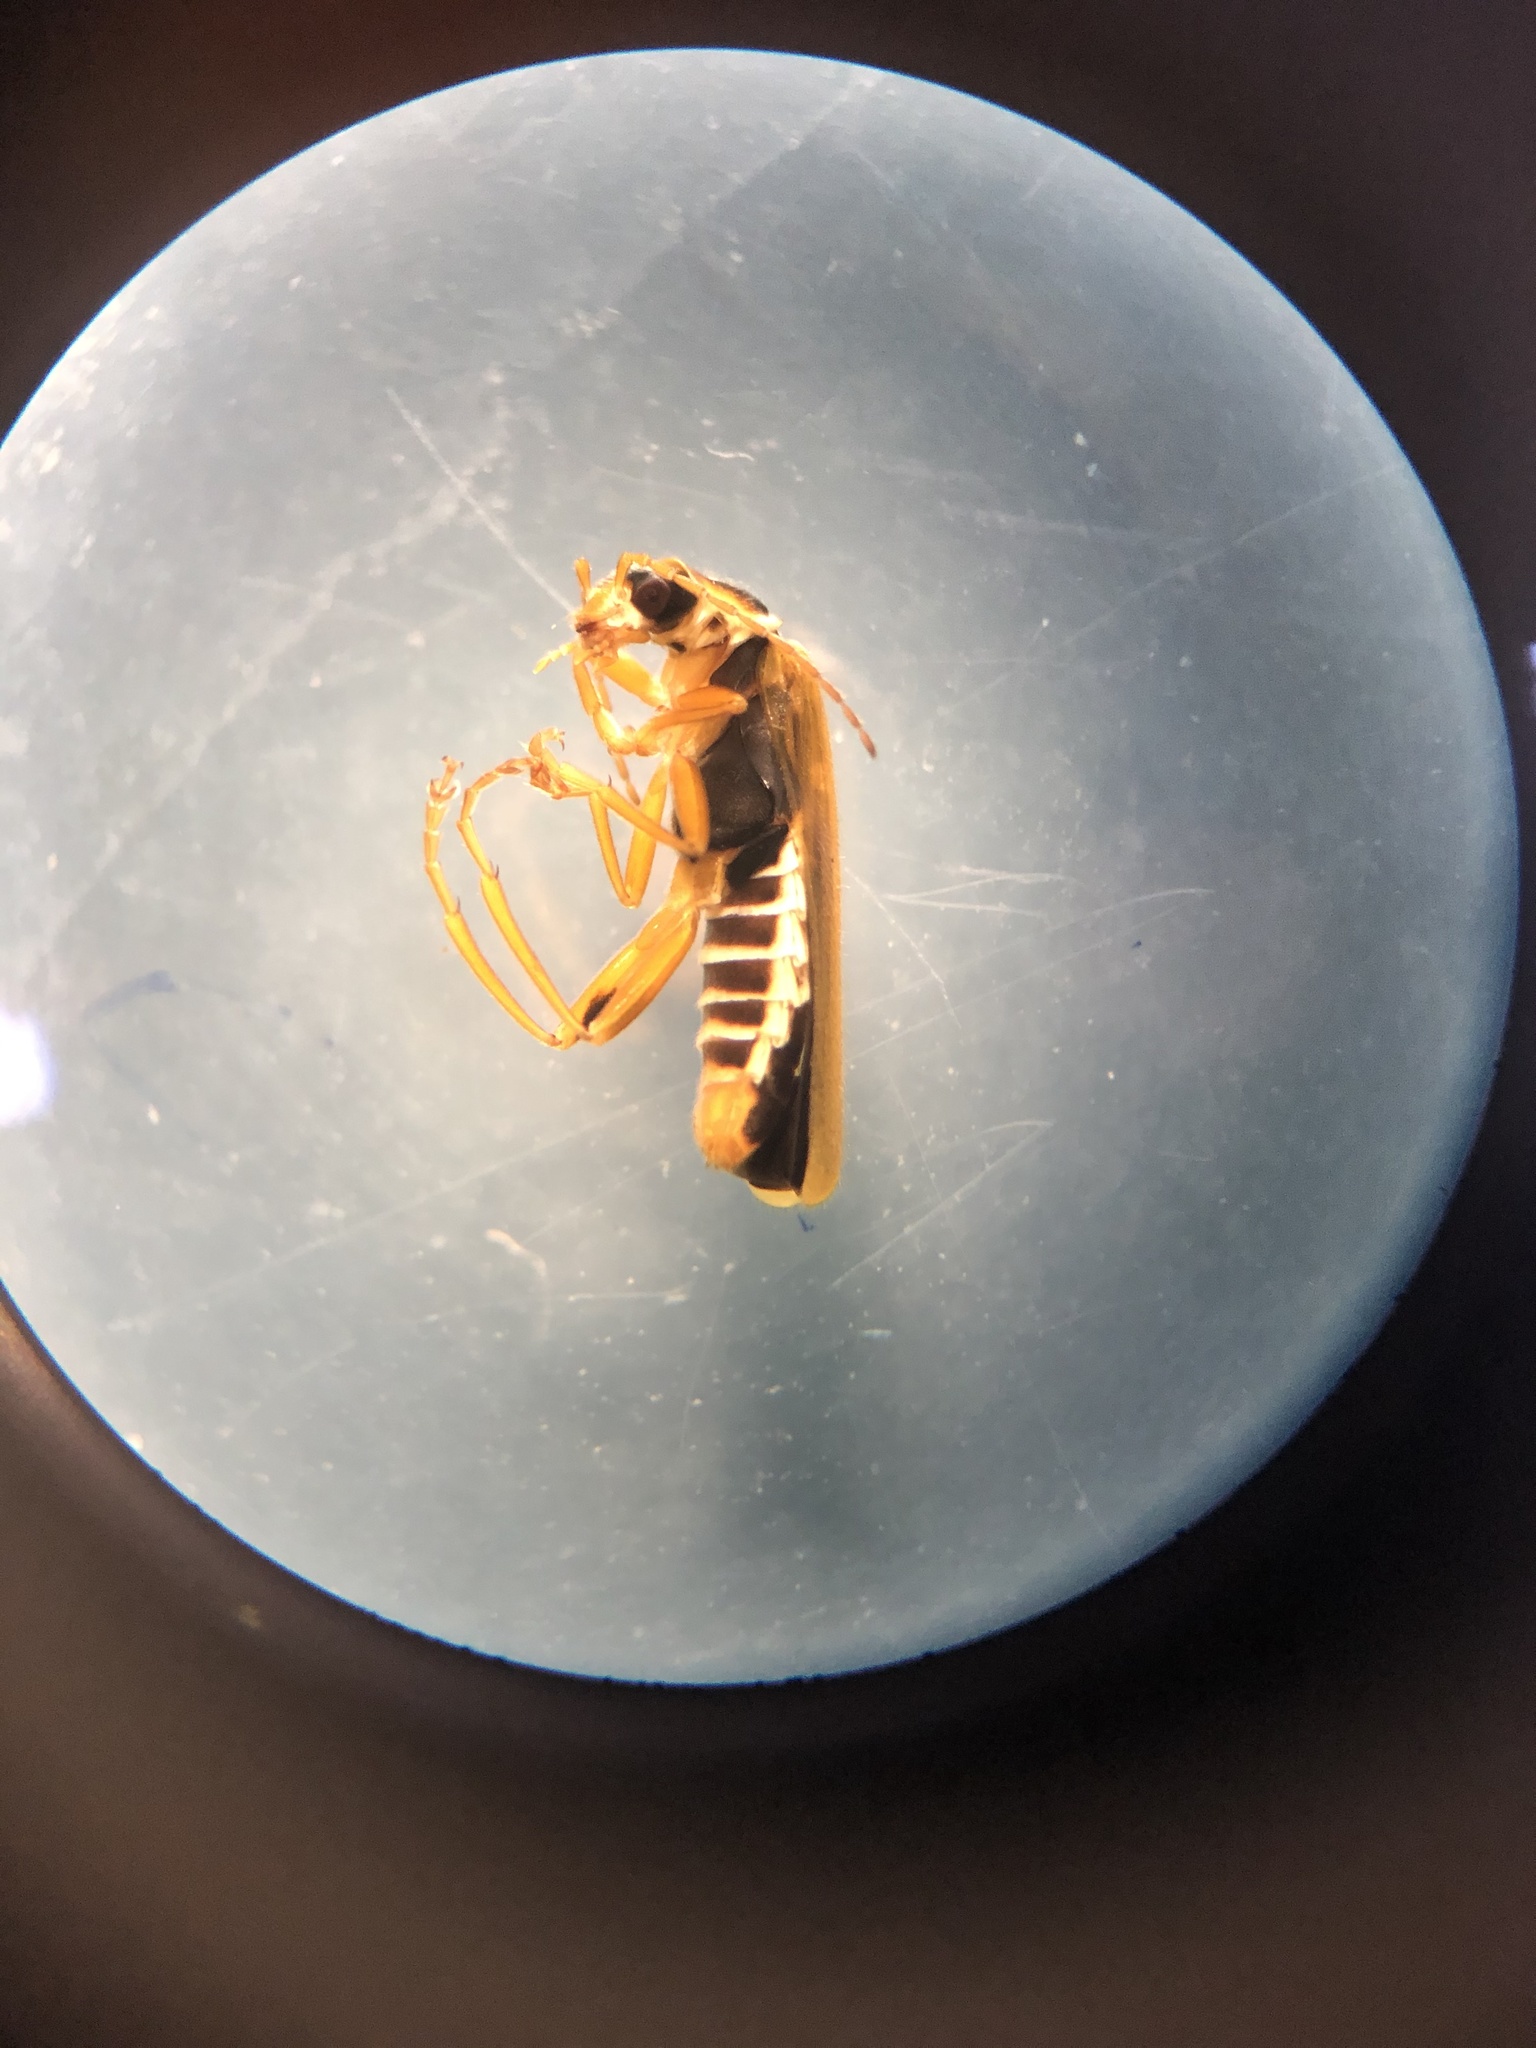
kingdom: Animalia
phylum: Arthropoda
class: Insecta
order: Coleoptera
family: Cantharidae
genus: Cantharis
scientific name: Cantharis decipiens
